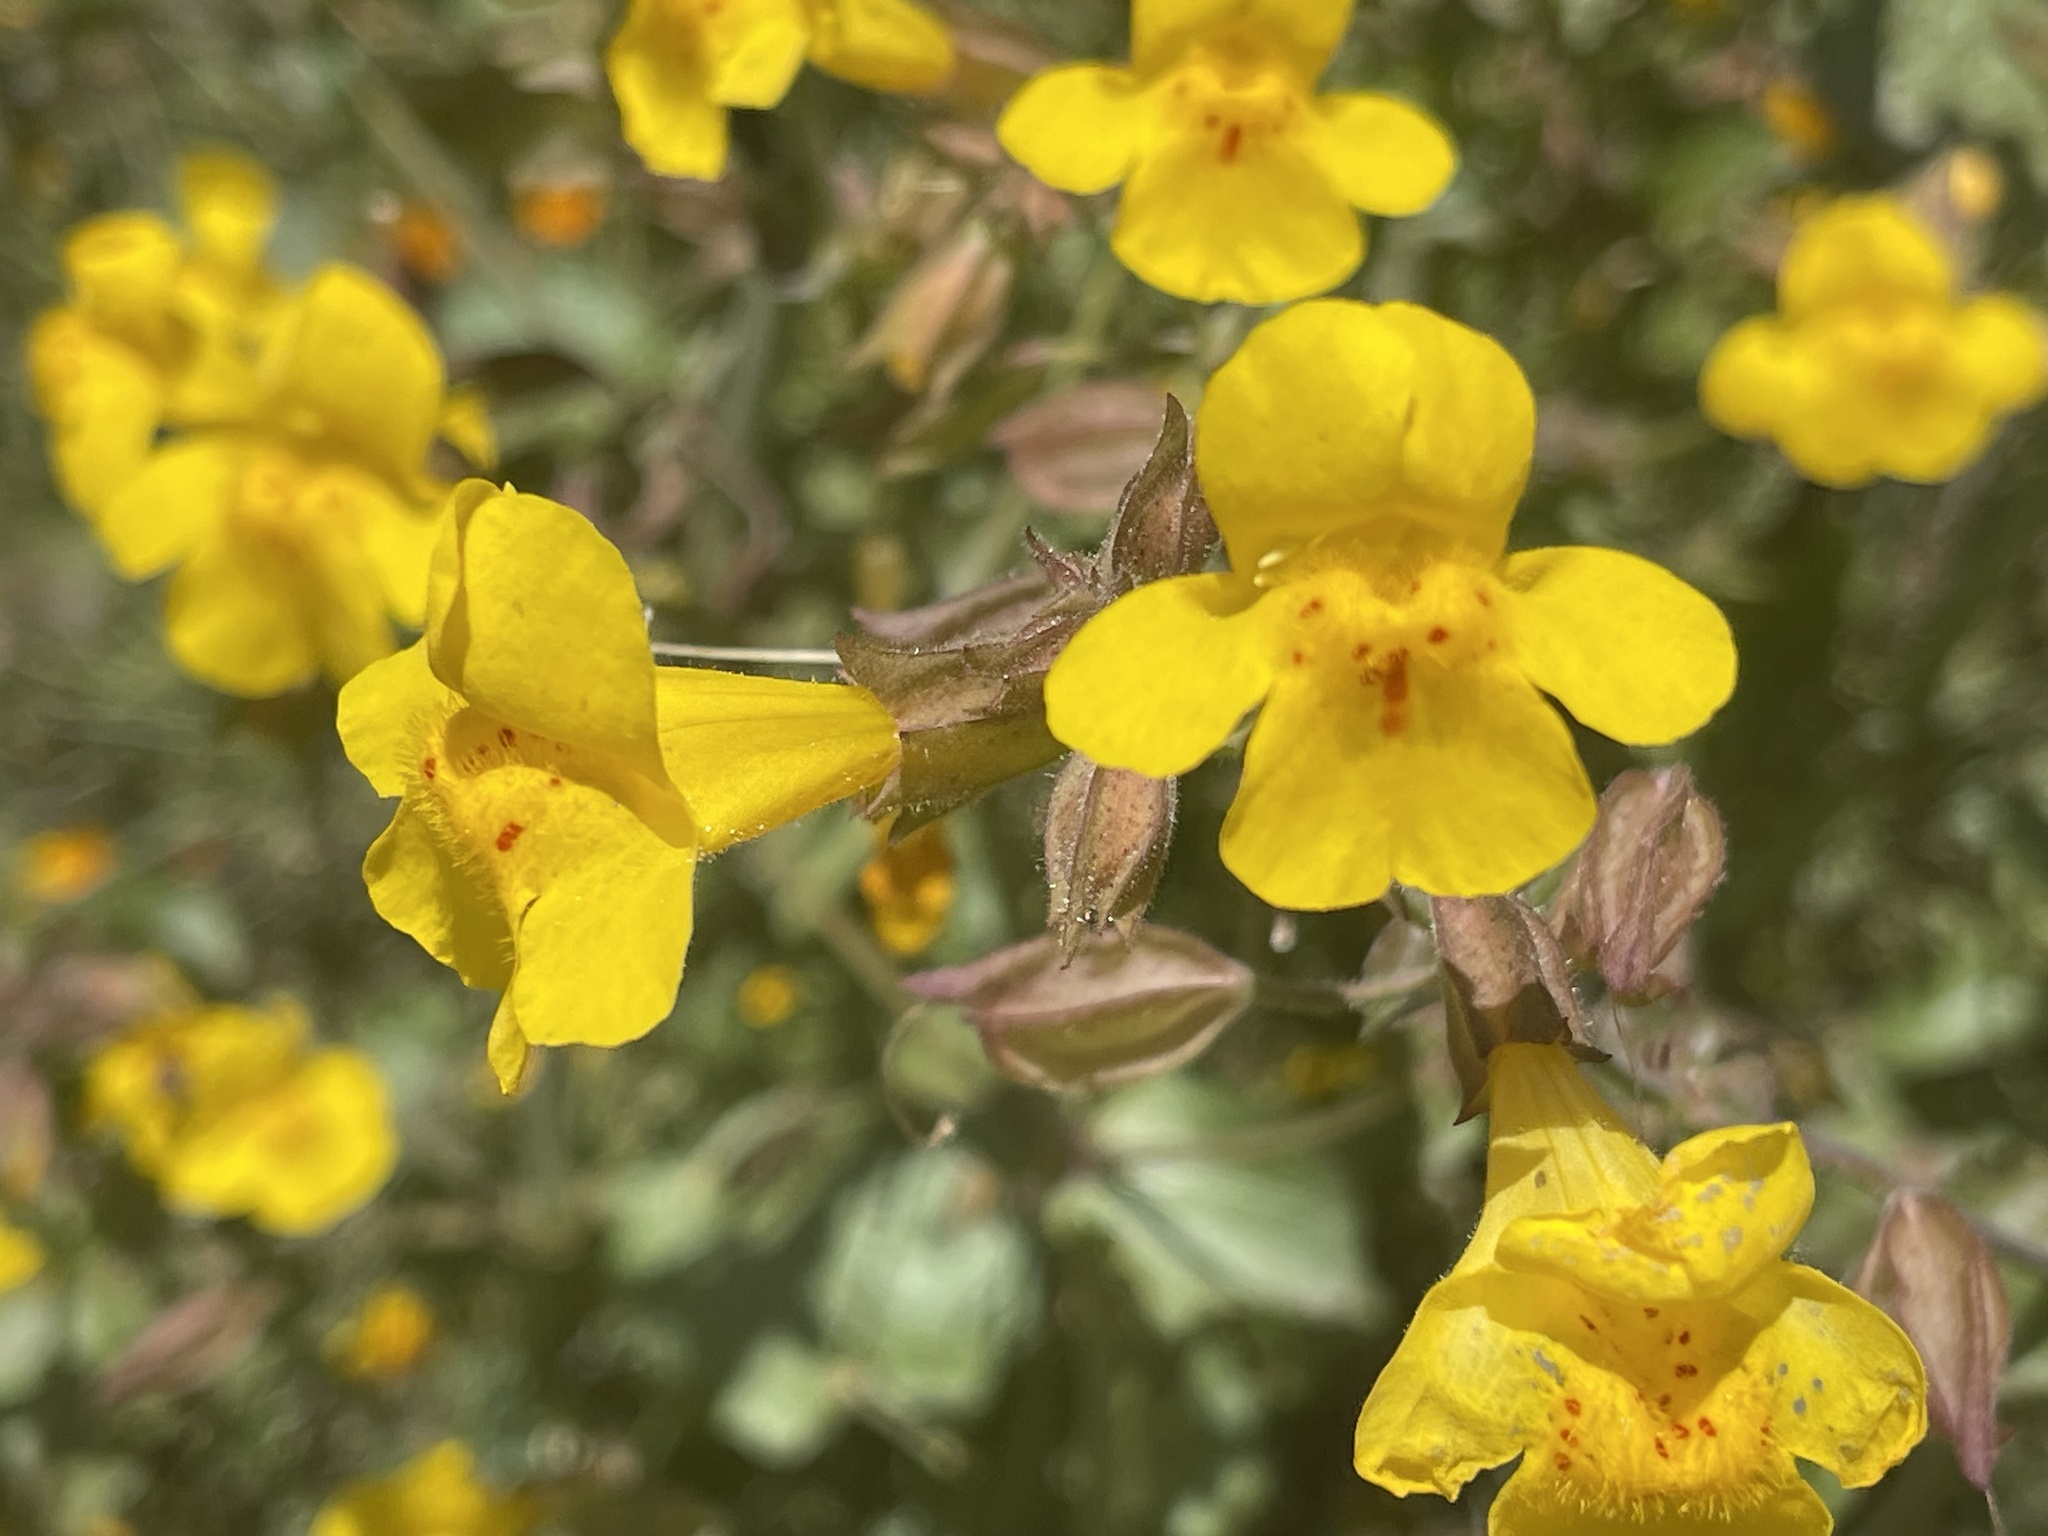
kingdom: Plantae
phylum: Tracheophyta
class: Magnoliopsida
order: Lamiales
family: Phrymaceae
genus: Erythranthe
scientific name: Erythranthe guttata
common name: Monkeyflower
